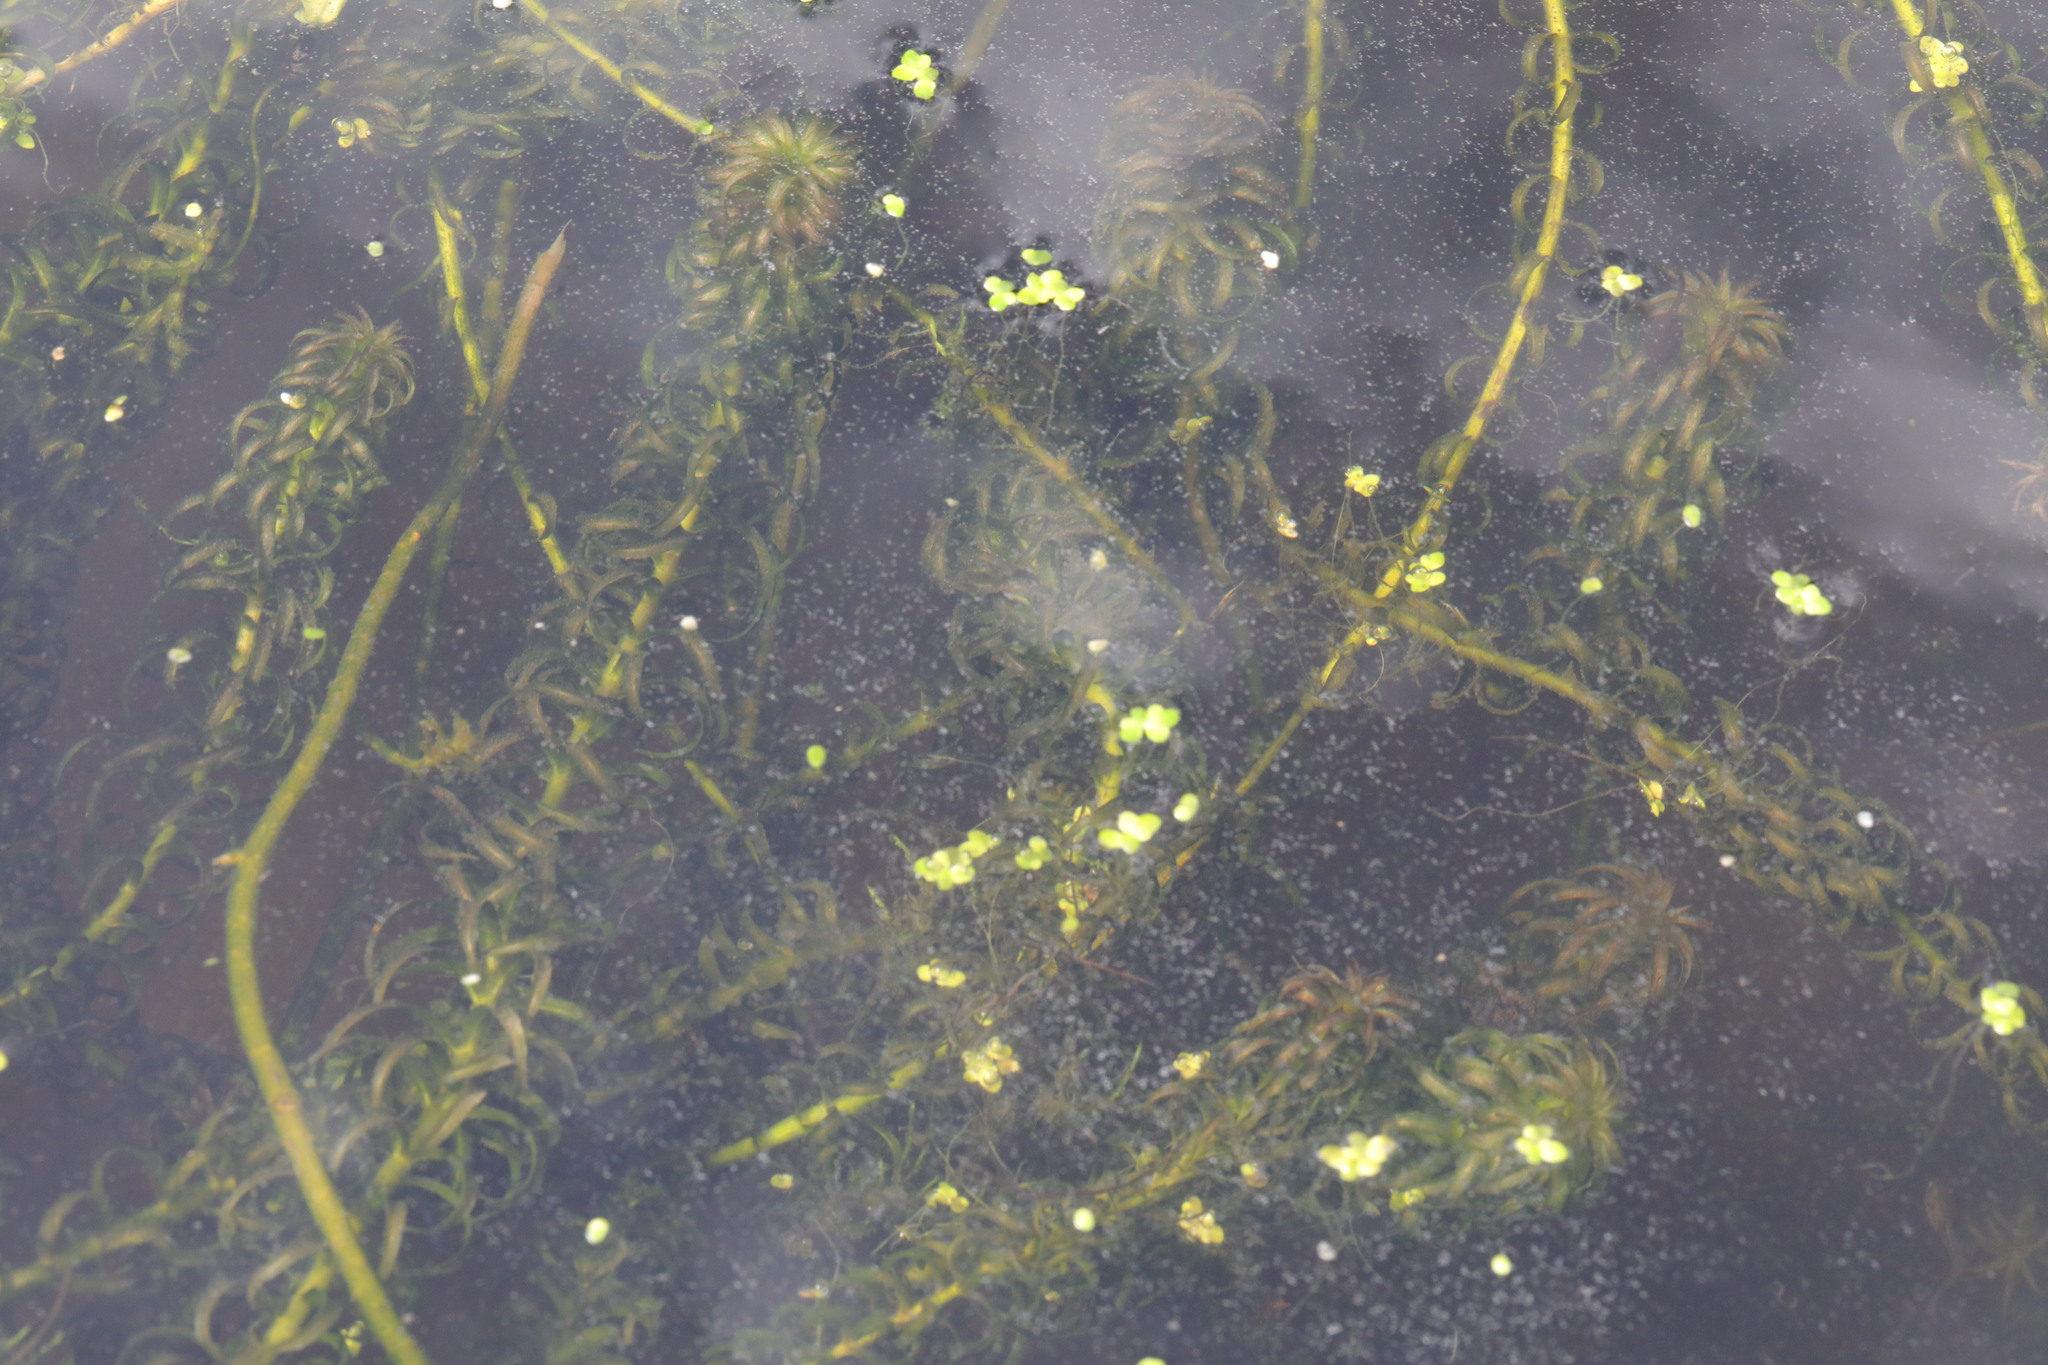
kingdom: Plantae
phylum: Tracheophyta
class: Liliopsida
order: Alismatales
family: Hydrocharitaceae
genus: Lagarosiphon
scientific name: Lagarosiphon major
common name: Curly waterweed
